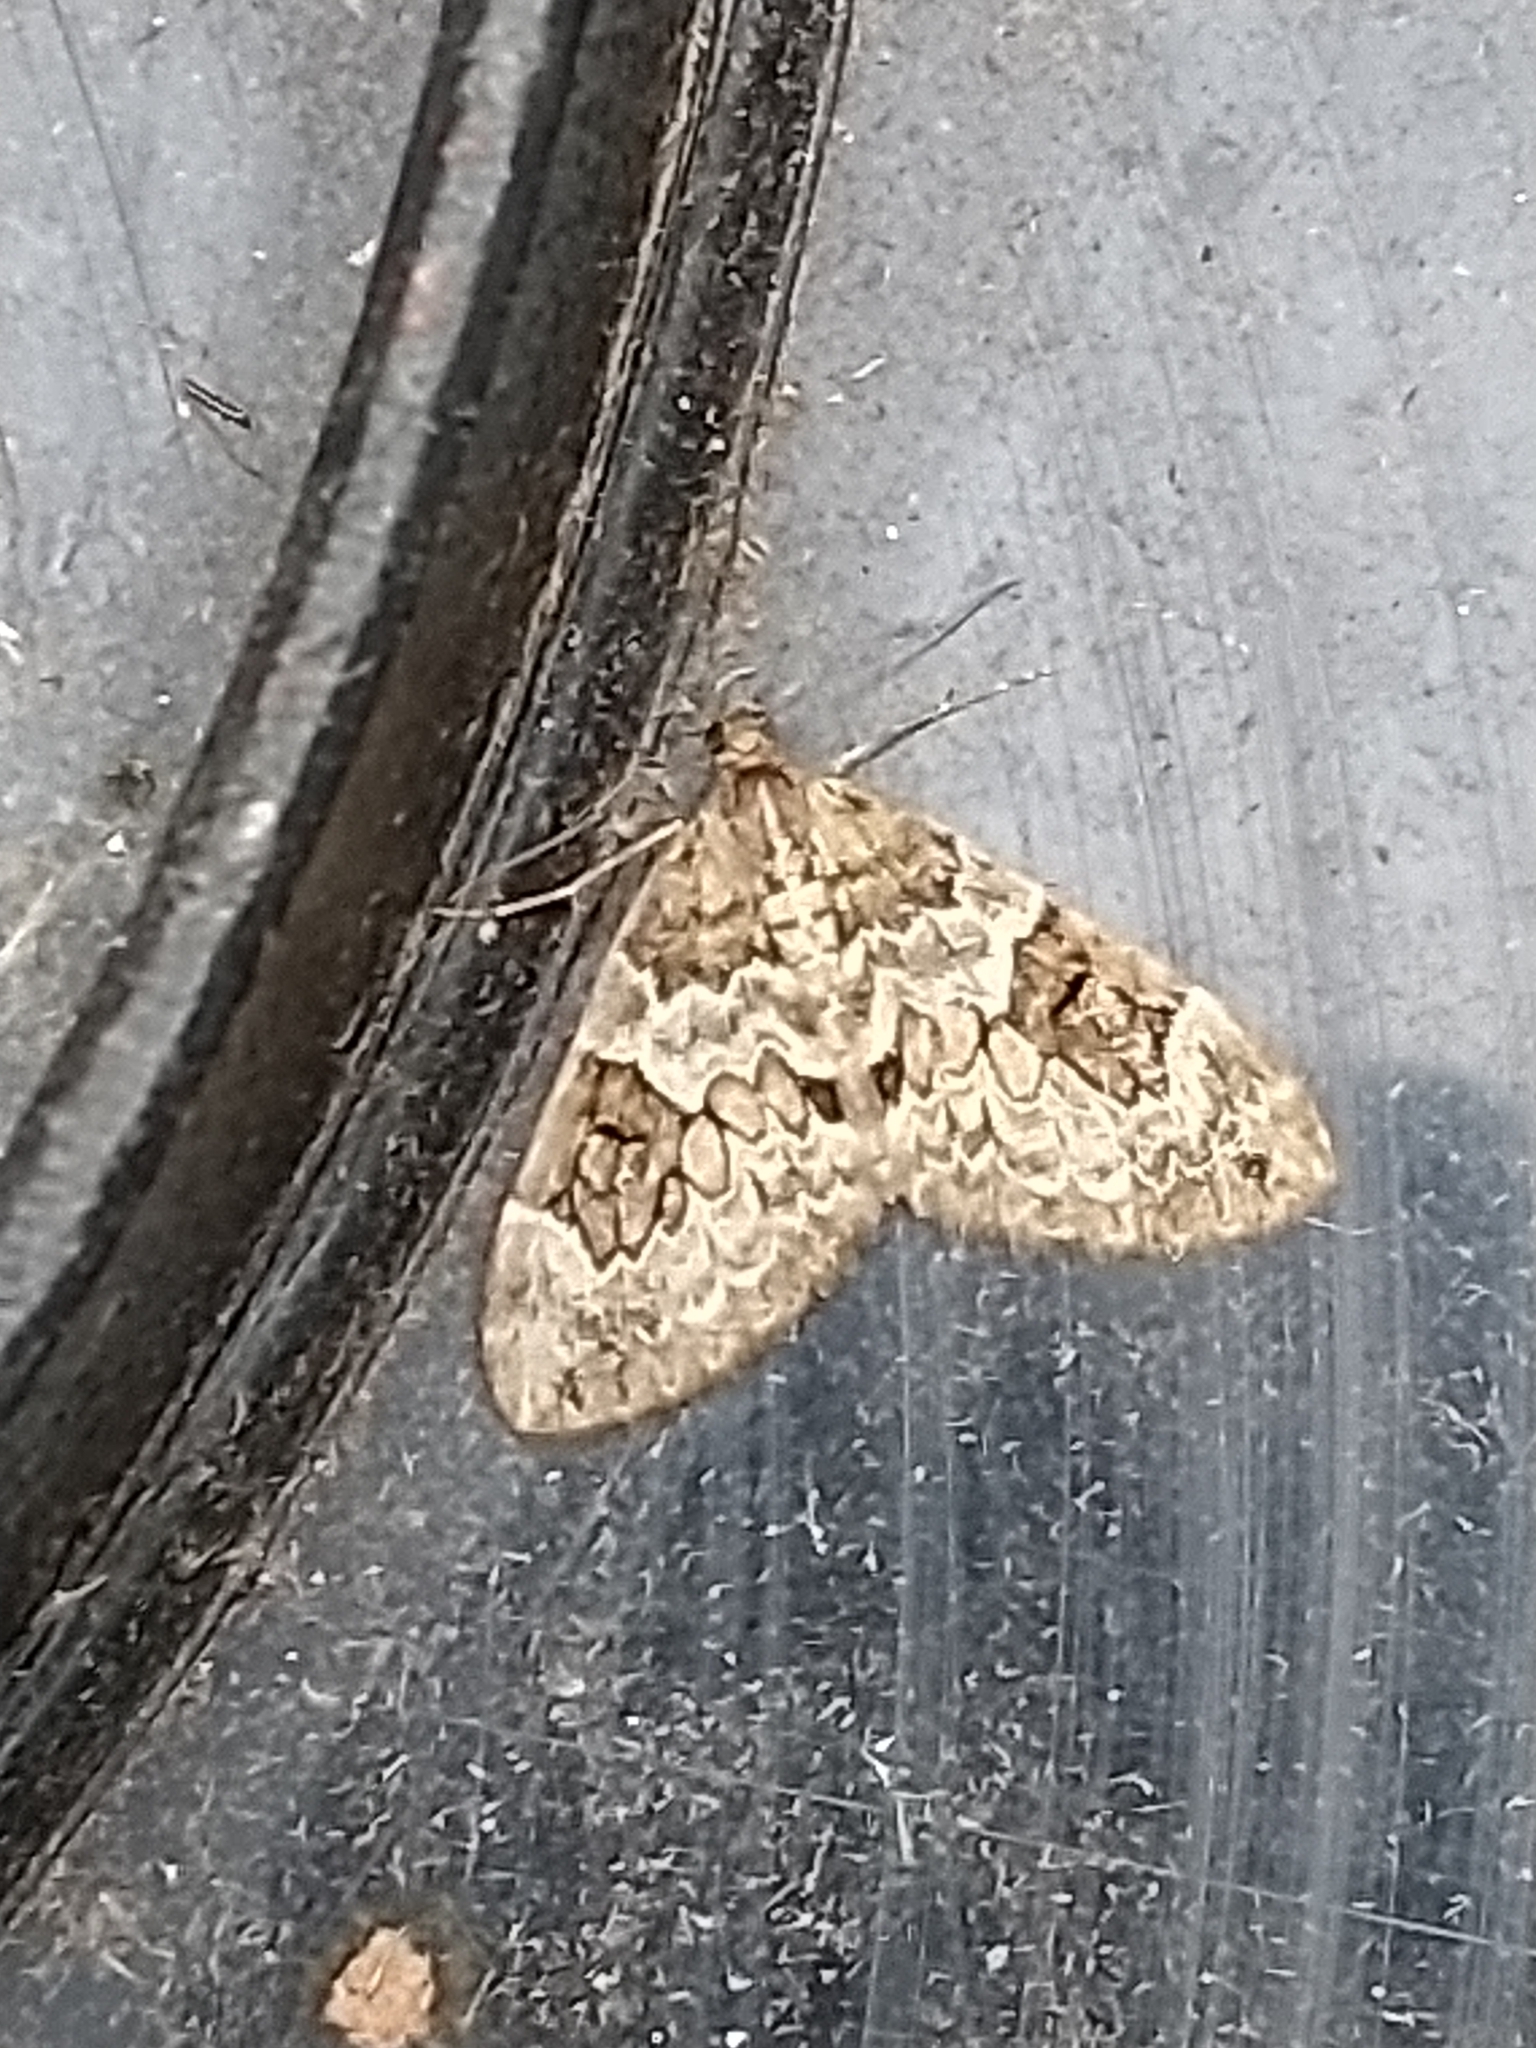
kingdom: Animalia
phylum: Arthropoda
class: Insecta
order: Lepidoptera
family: Geometridae
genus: Thera
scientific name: Thera britannica
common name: Spruce carpet
